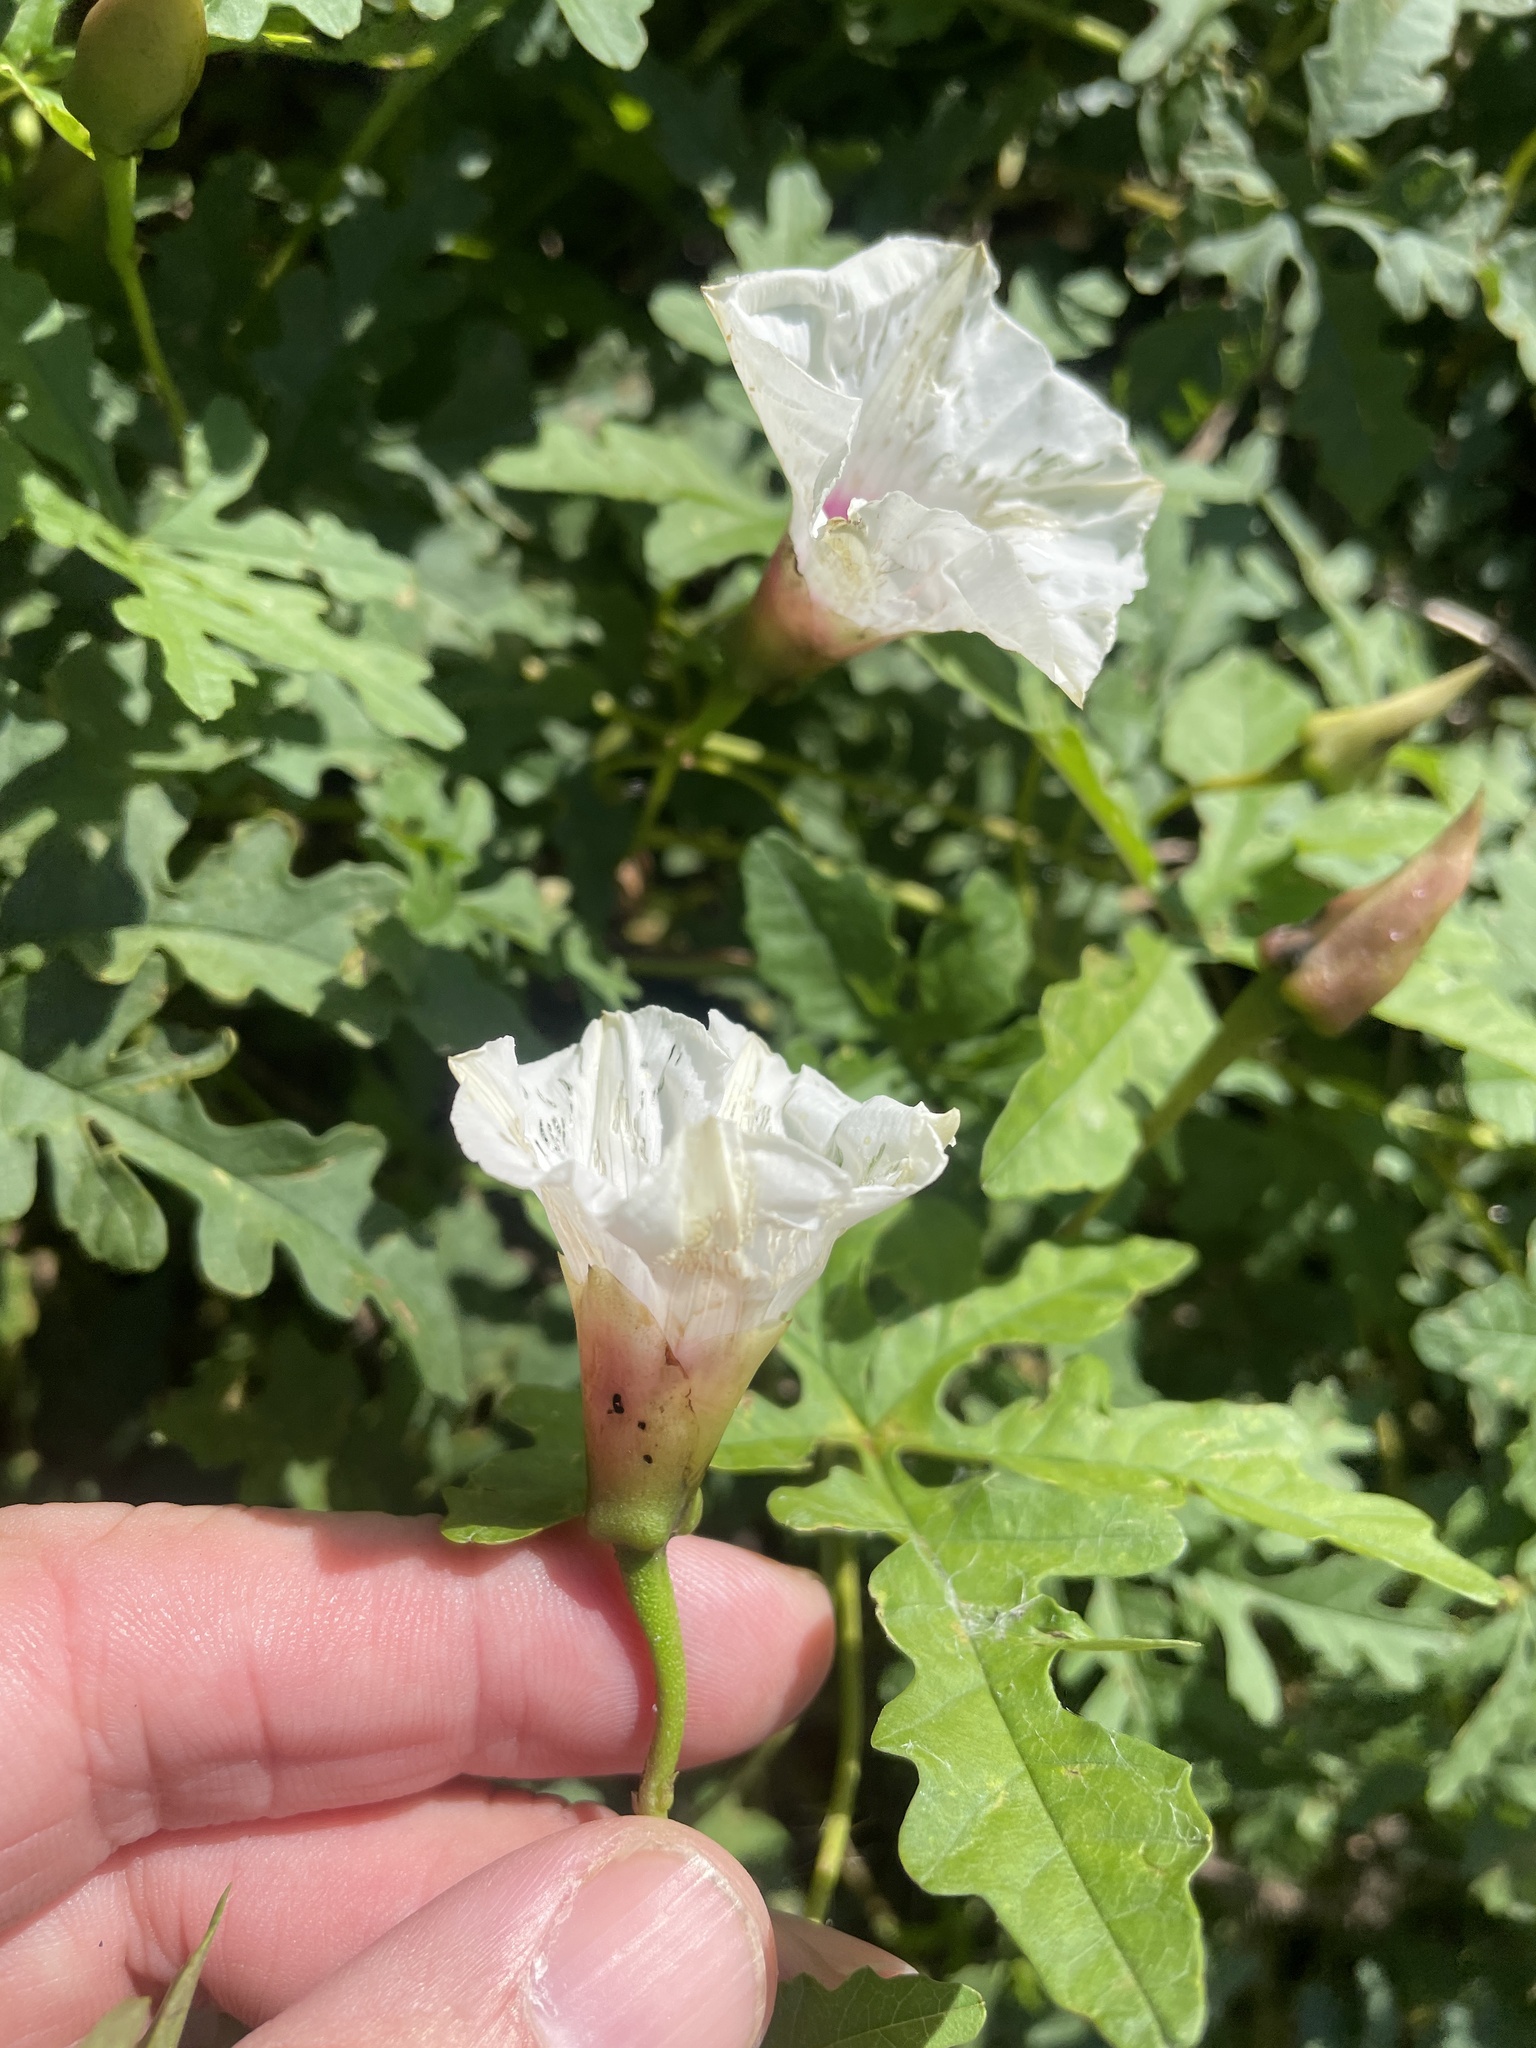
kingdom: Plantae
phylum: Tracheophyta
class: Magnoliopsida
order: Solanales
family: Convolvulaceae
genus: Distimake
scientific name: Distimake dissectus
